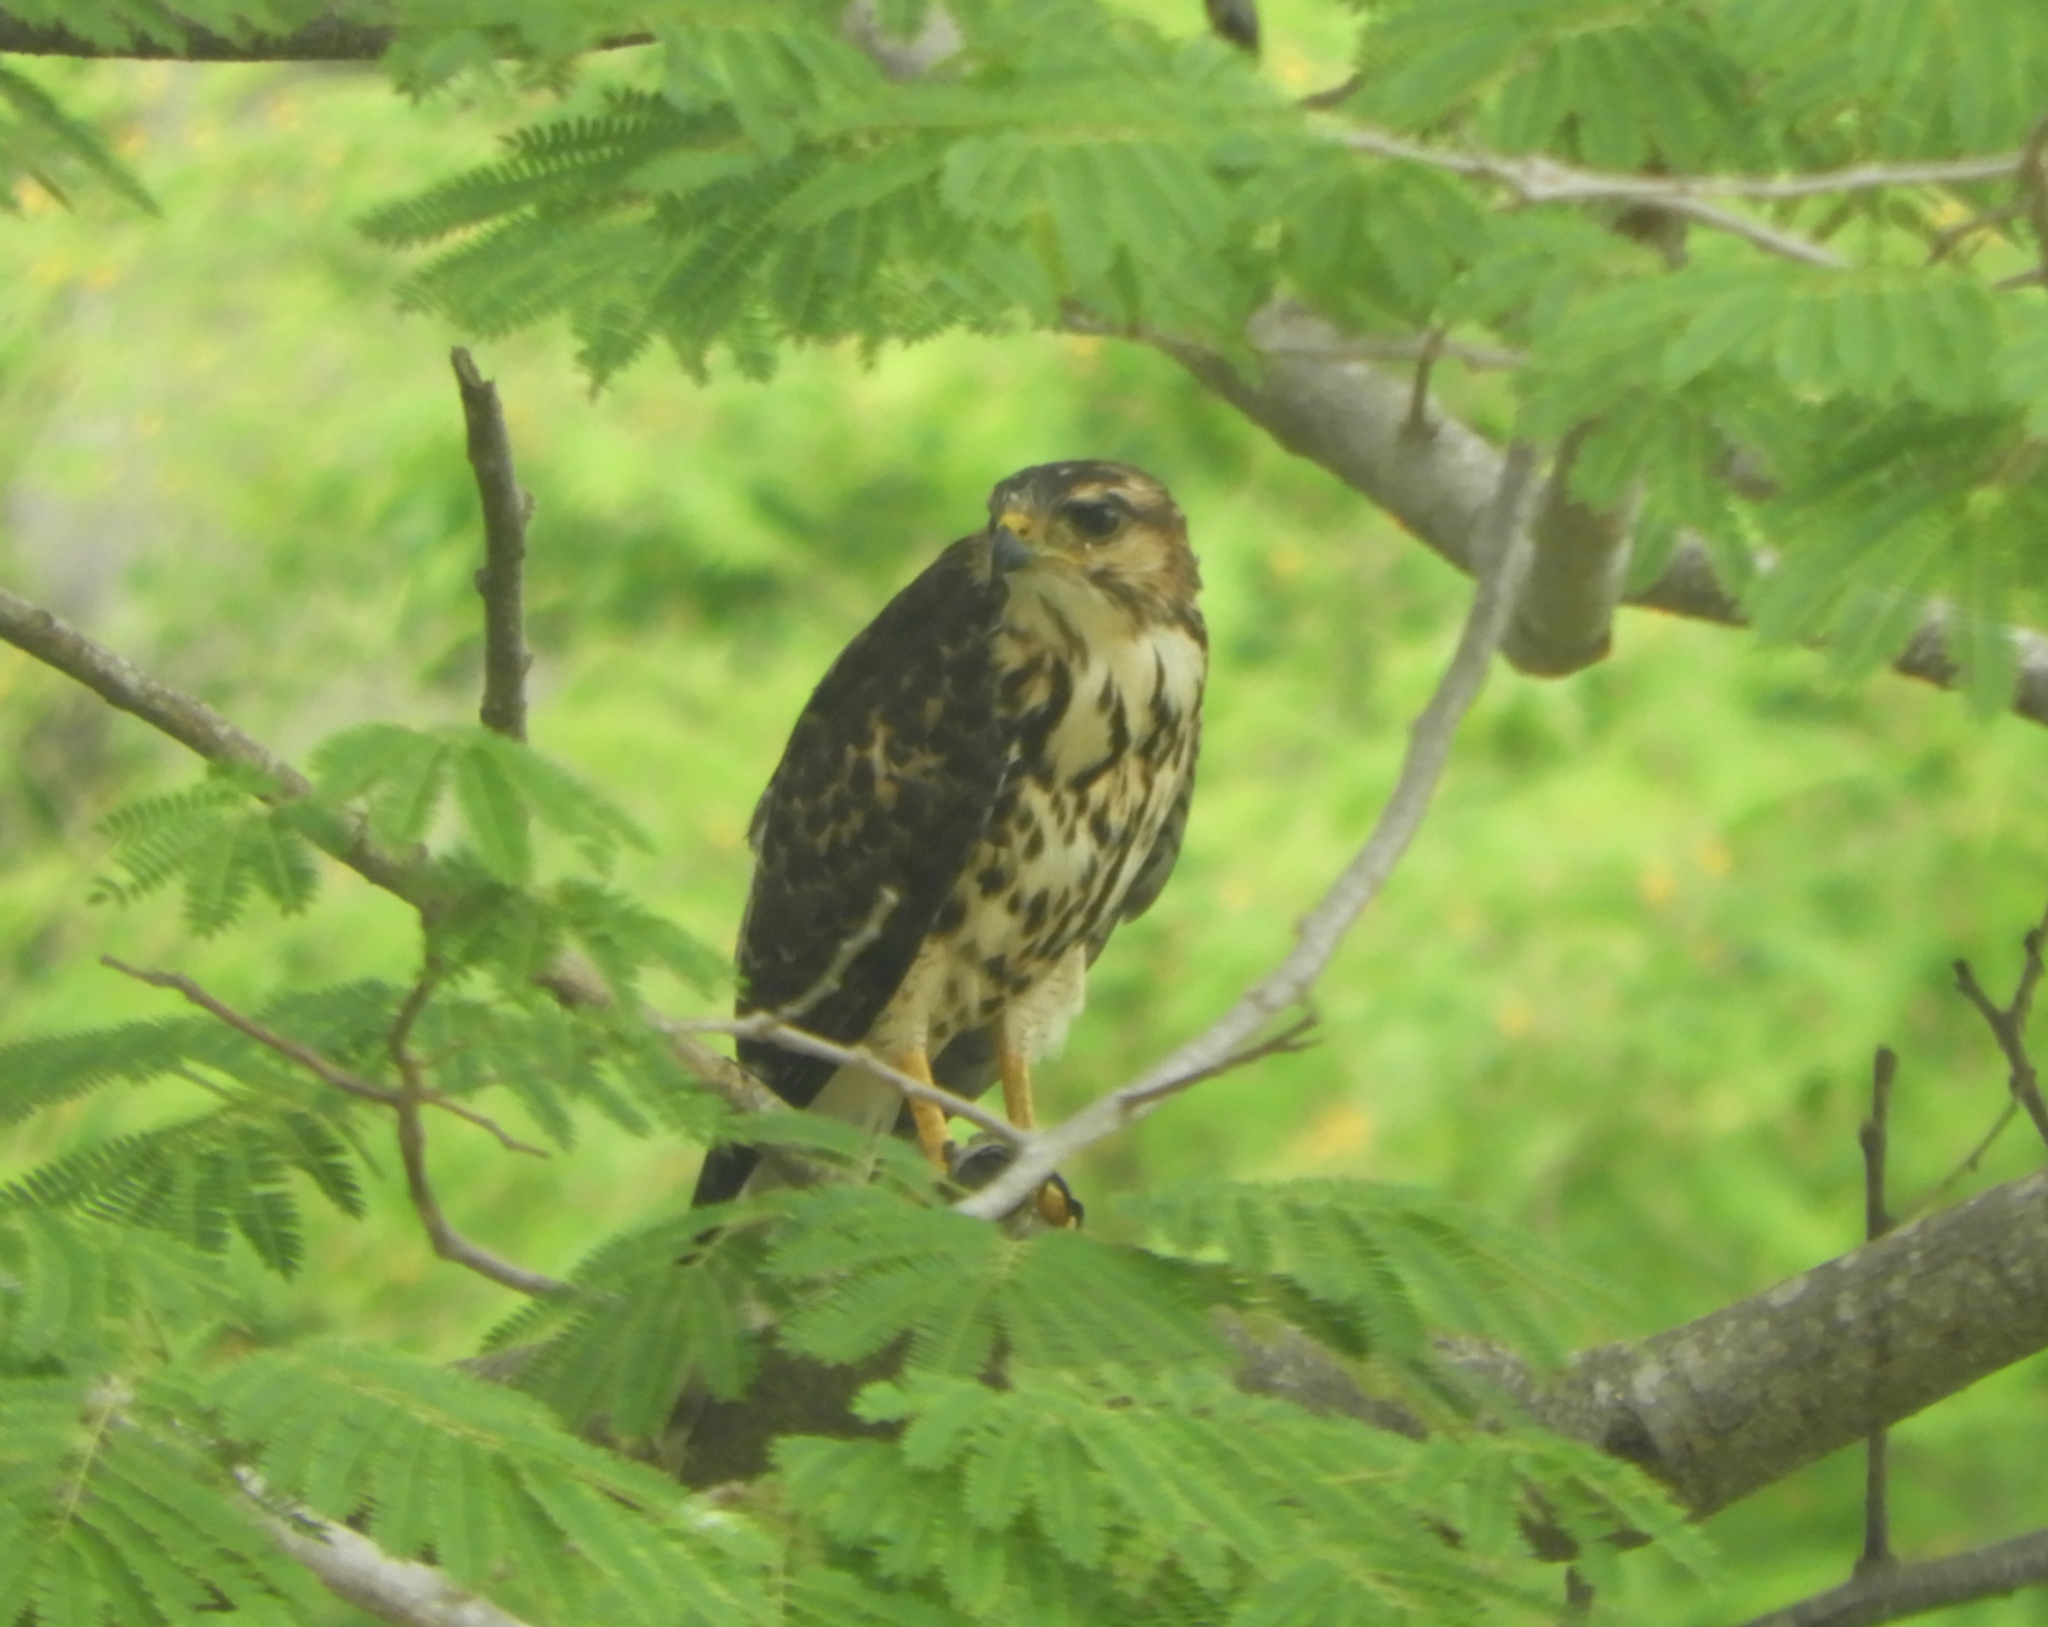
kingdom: Animalia
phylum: Chordata
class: Aves
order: Accipitriformes
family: Accipitridae
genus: Buteo
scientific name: Buteo nitidus
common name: Grey-lined hawk
